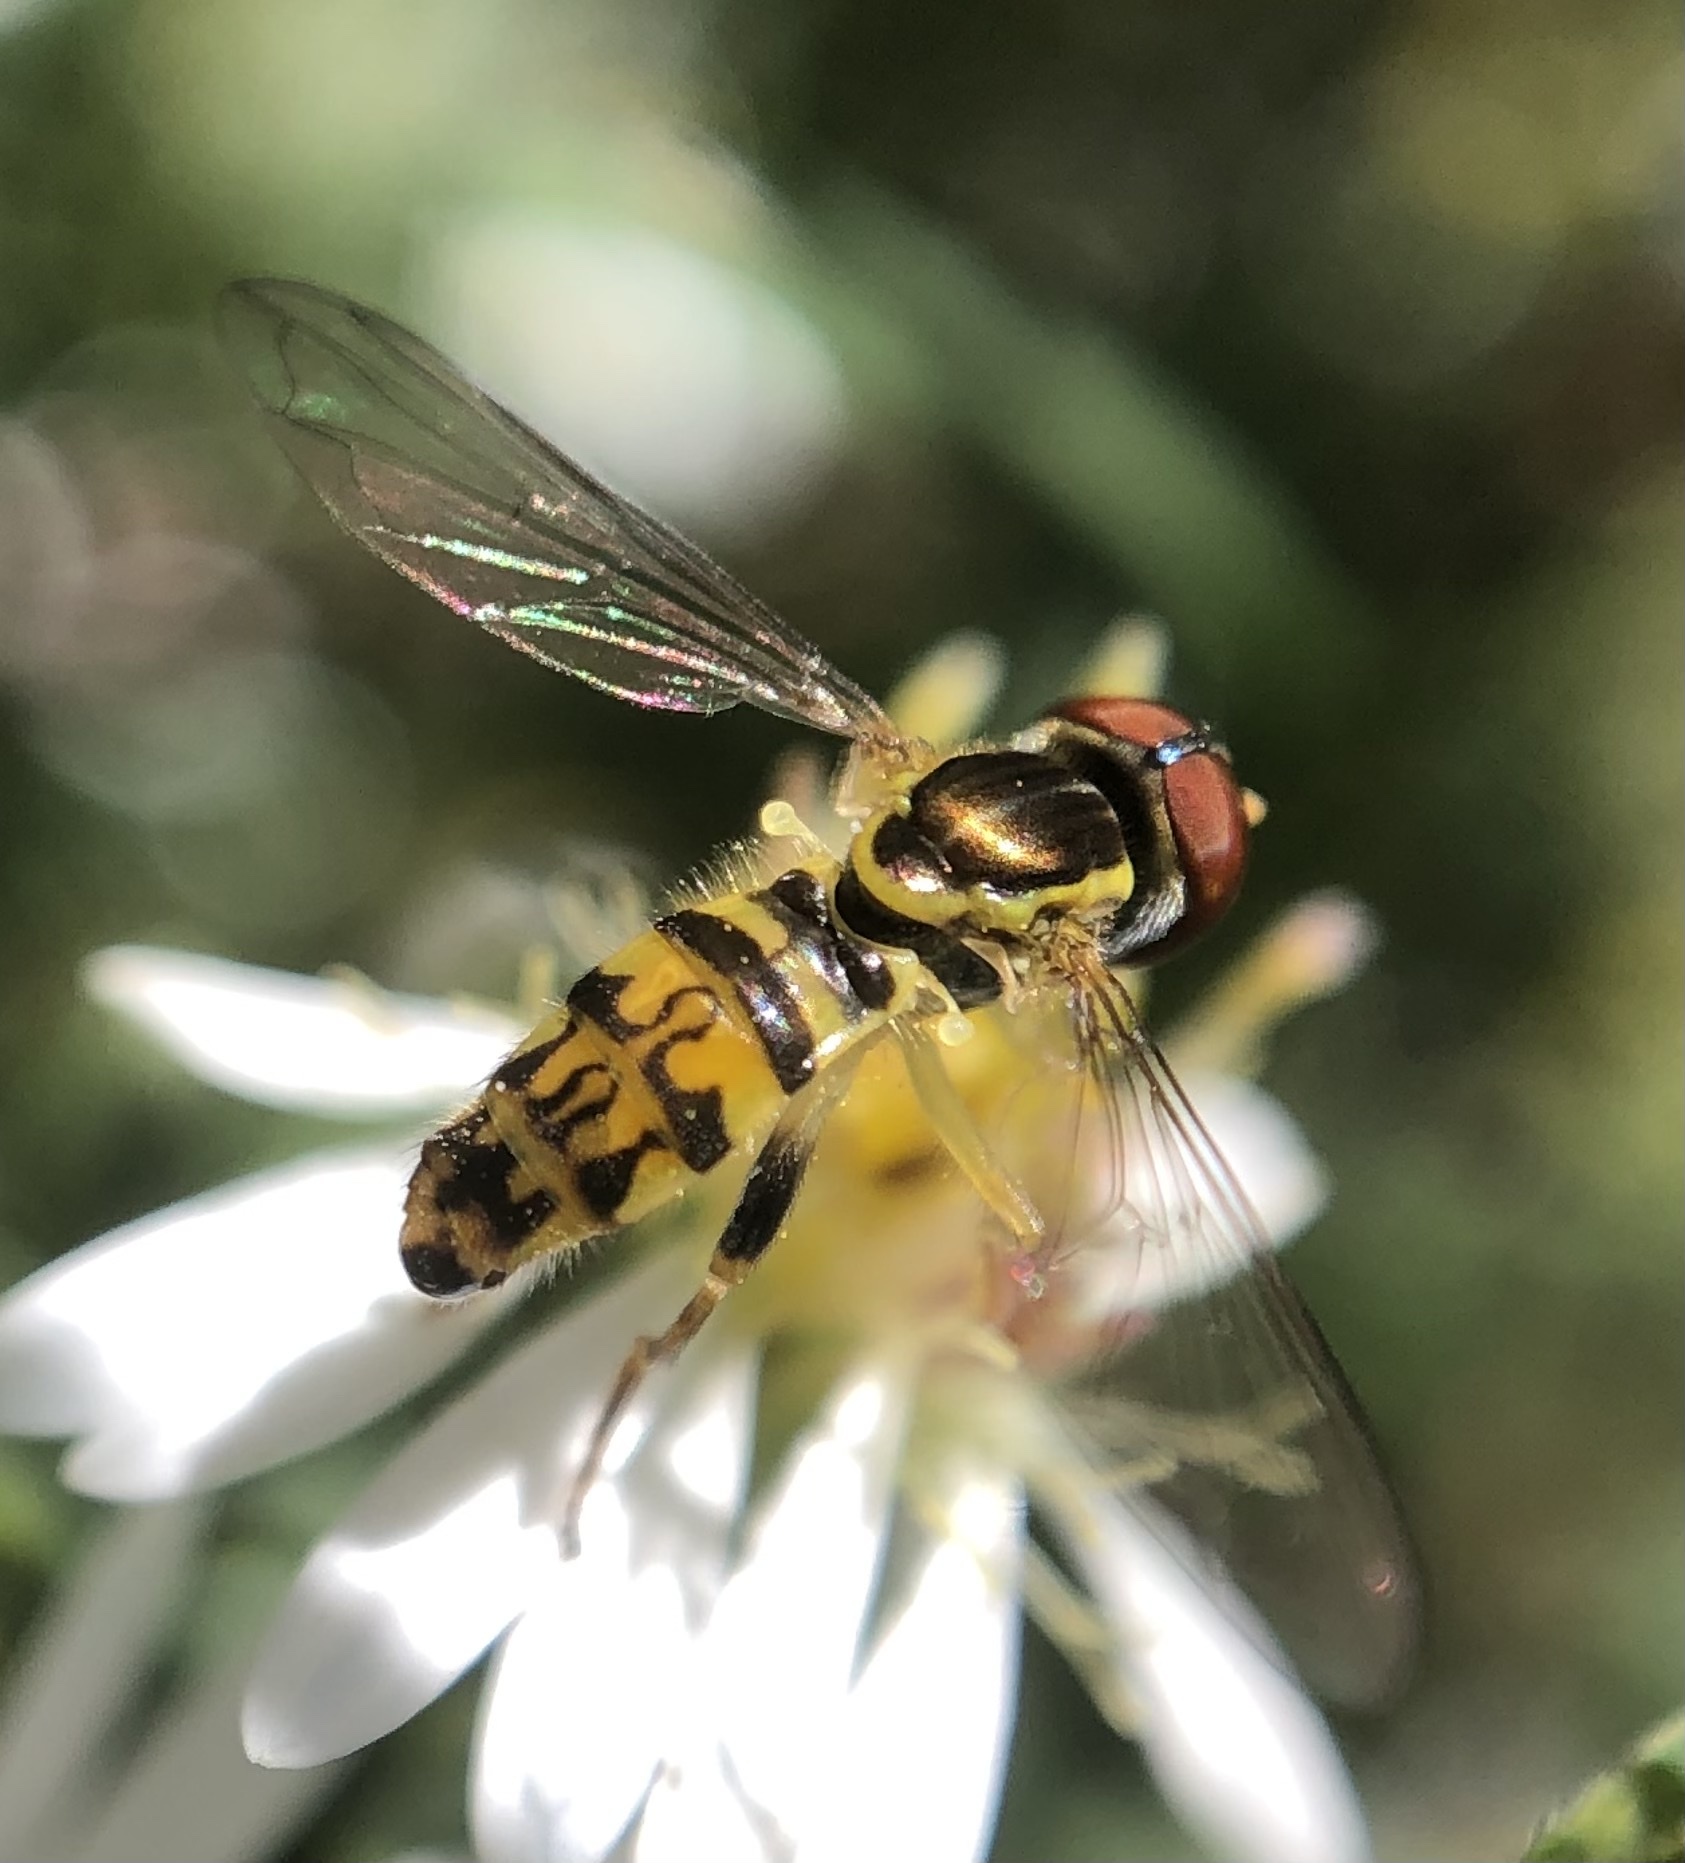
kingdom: Animalia
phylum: Arthropoda
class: Insecta
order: Diptera
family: Syrphidae
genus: Toxomerus
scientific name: Toxomerus geminatus
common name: Eastern calligrapher
